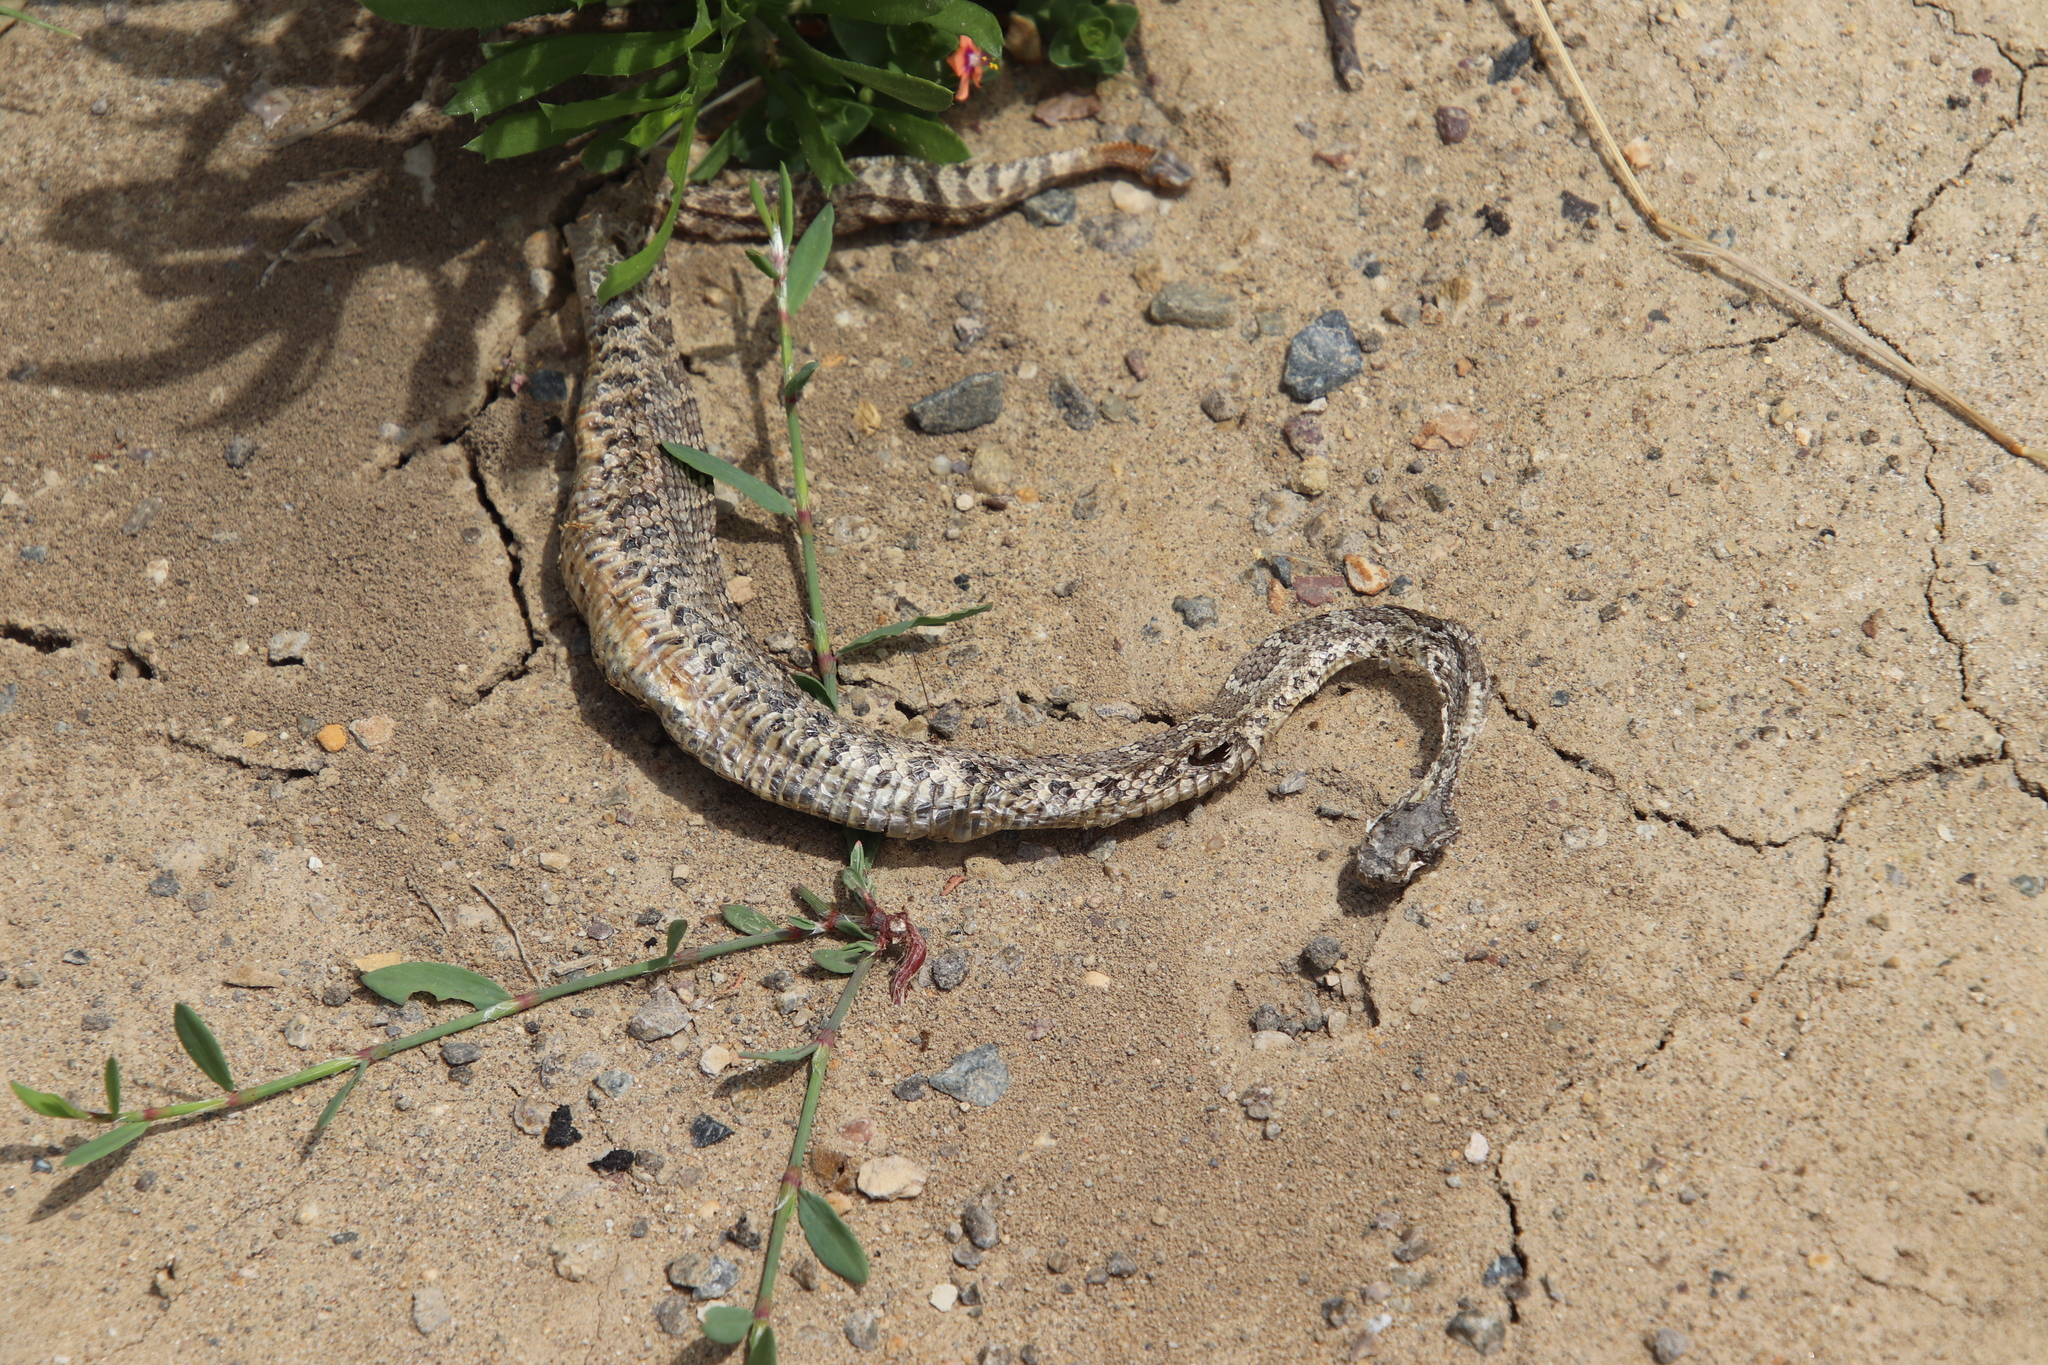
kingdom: Animalia
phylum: Chordata
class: Squamata
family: Viperidae
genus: Crotalus
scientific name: Crotalus oreganus
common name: Abyssus
